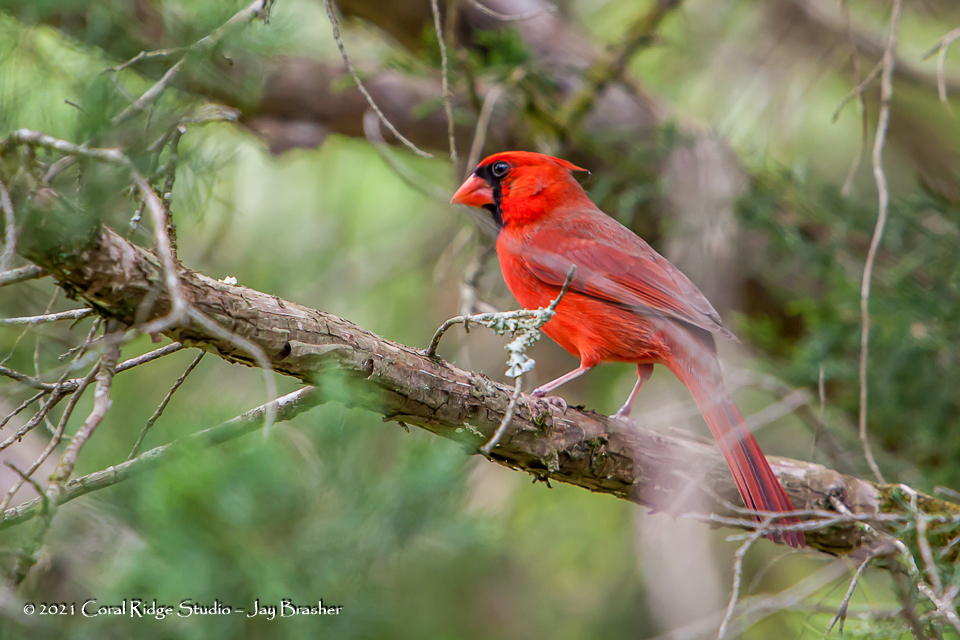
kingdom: Animalia
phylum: Chordata
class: Aves
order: Passeriformes
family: Cardinalidae
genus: Cardinalis
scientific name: Cardinalis cardinalis
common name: Northern cardinal
